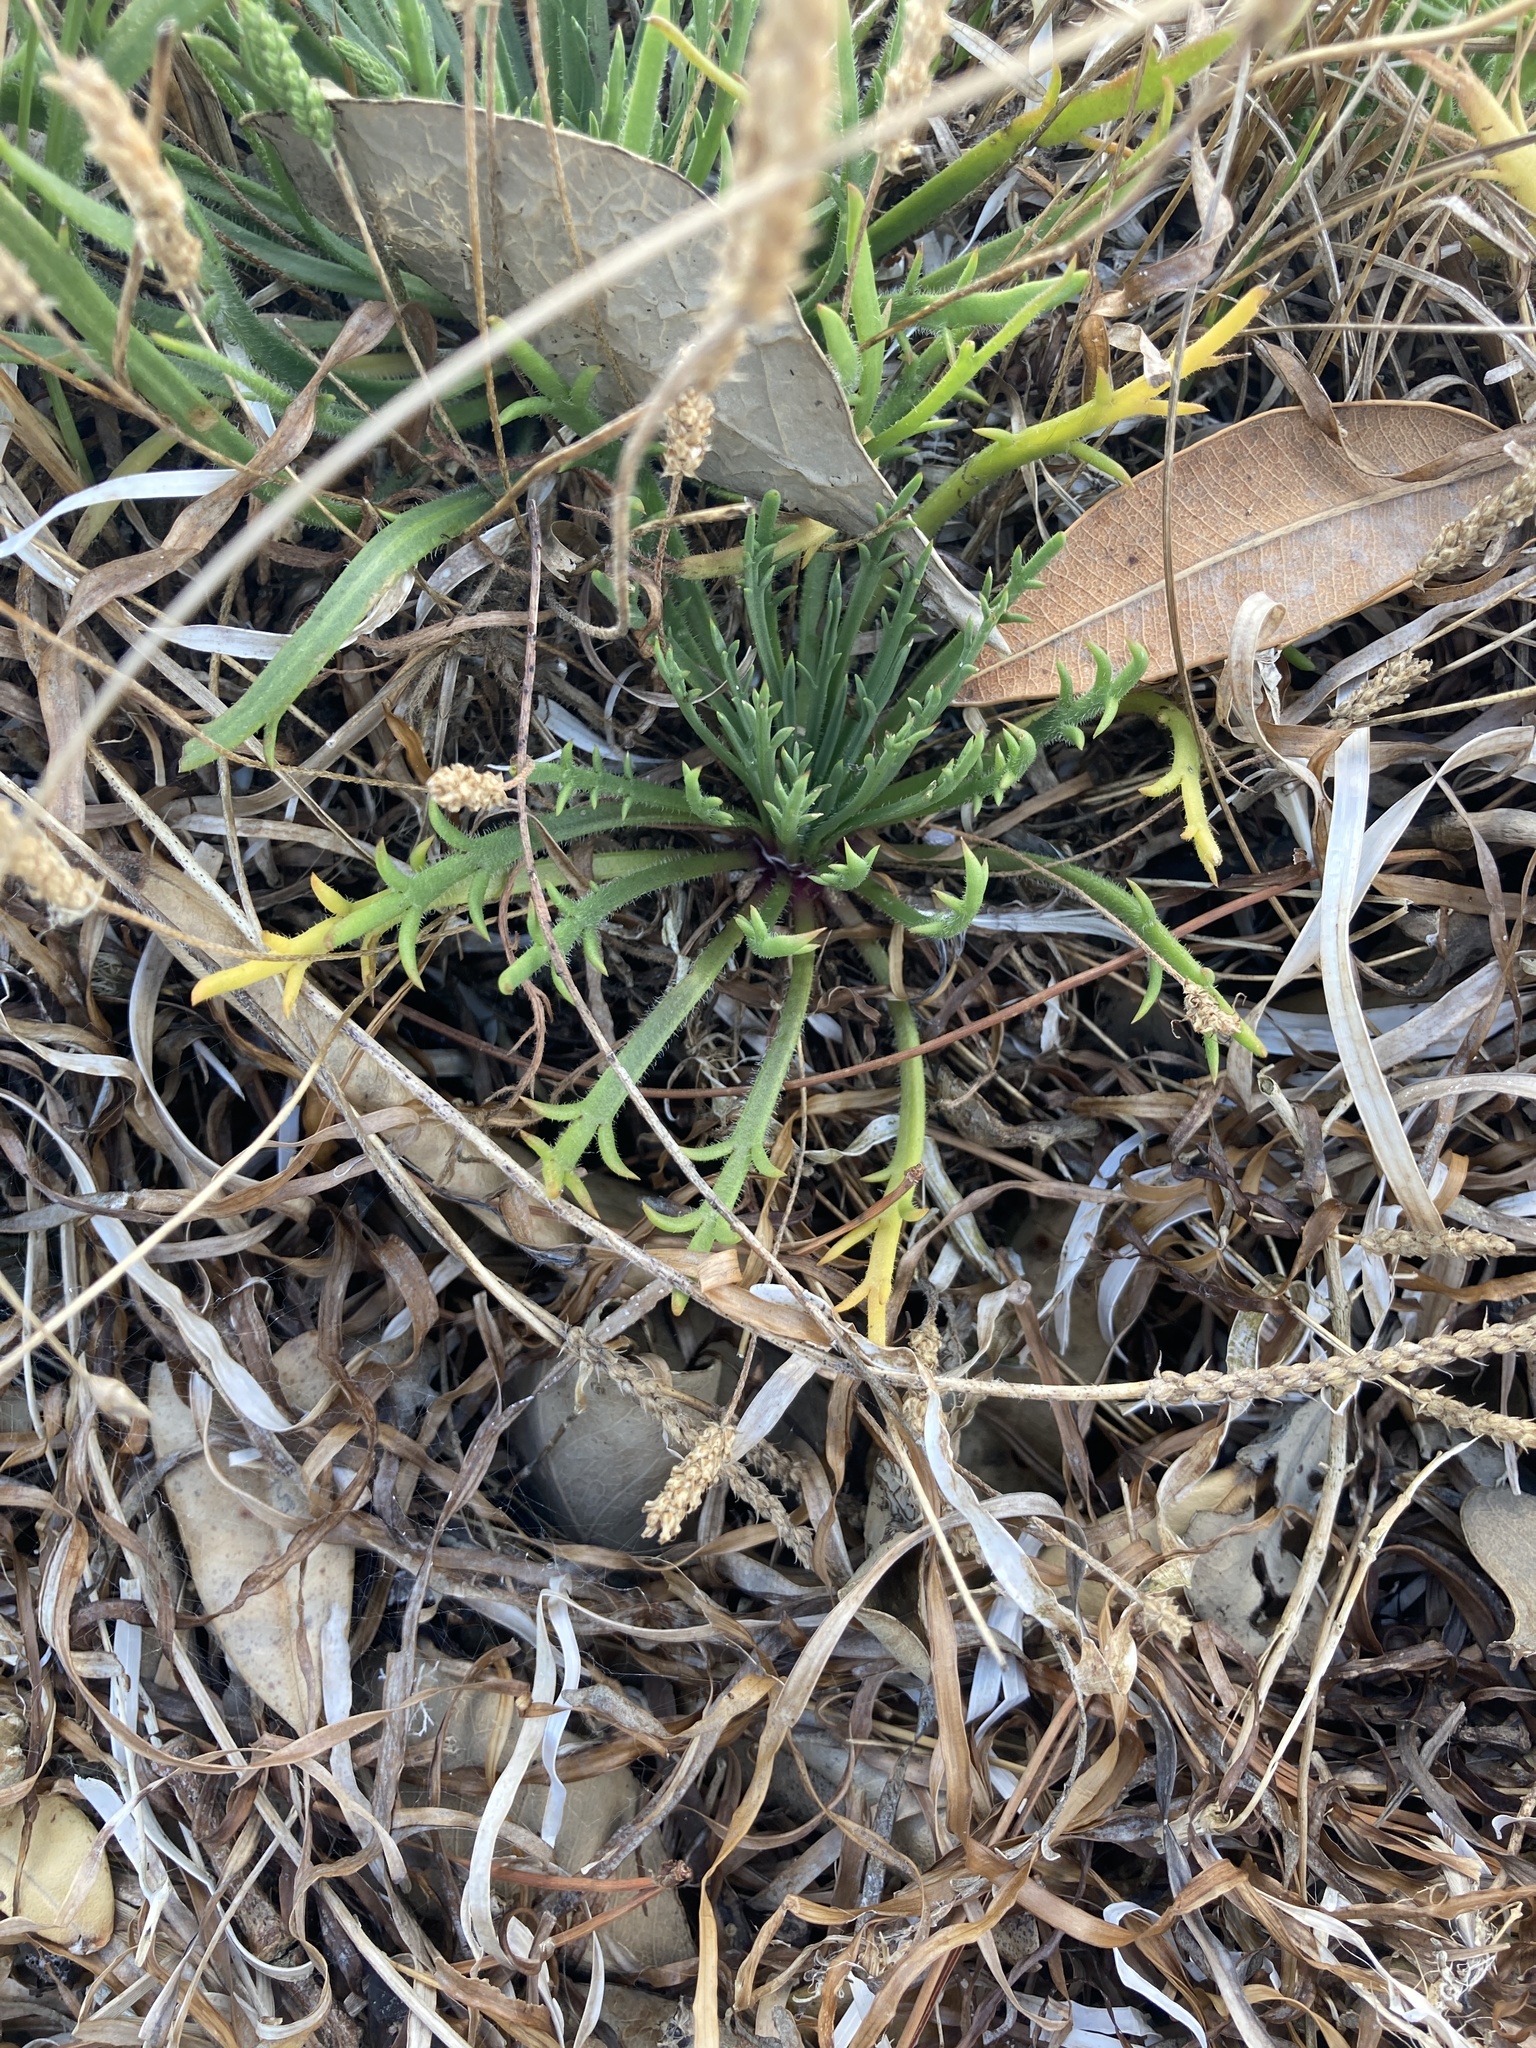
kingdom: Plantae
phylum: Tracheophyta
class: Magnoliopsida
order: Lamiales
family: Plantaginaceae
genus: Plantago
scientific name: Plantago coronopus
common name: Buck's-horn plantain
